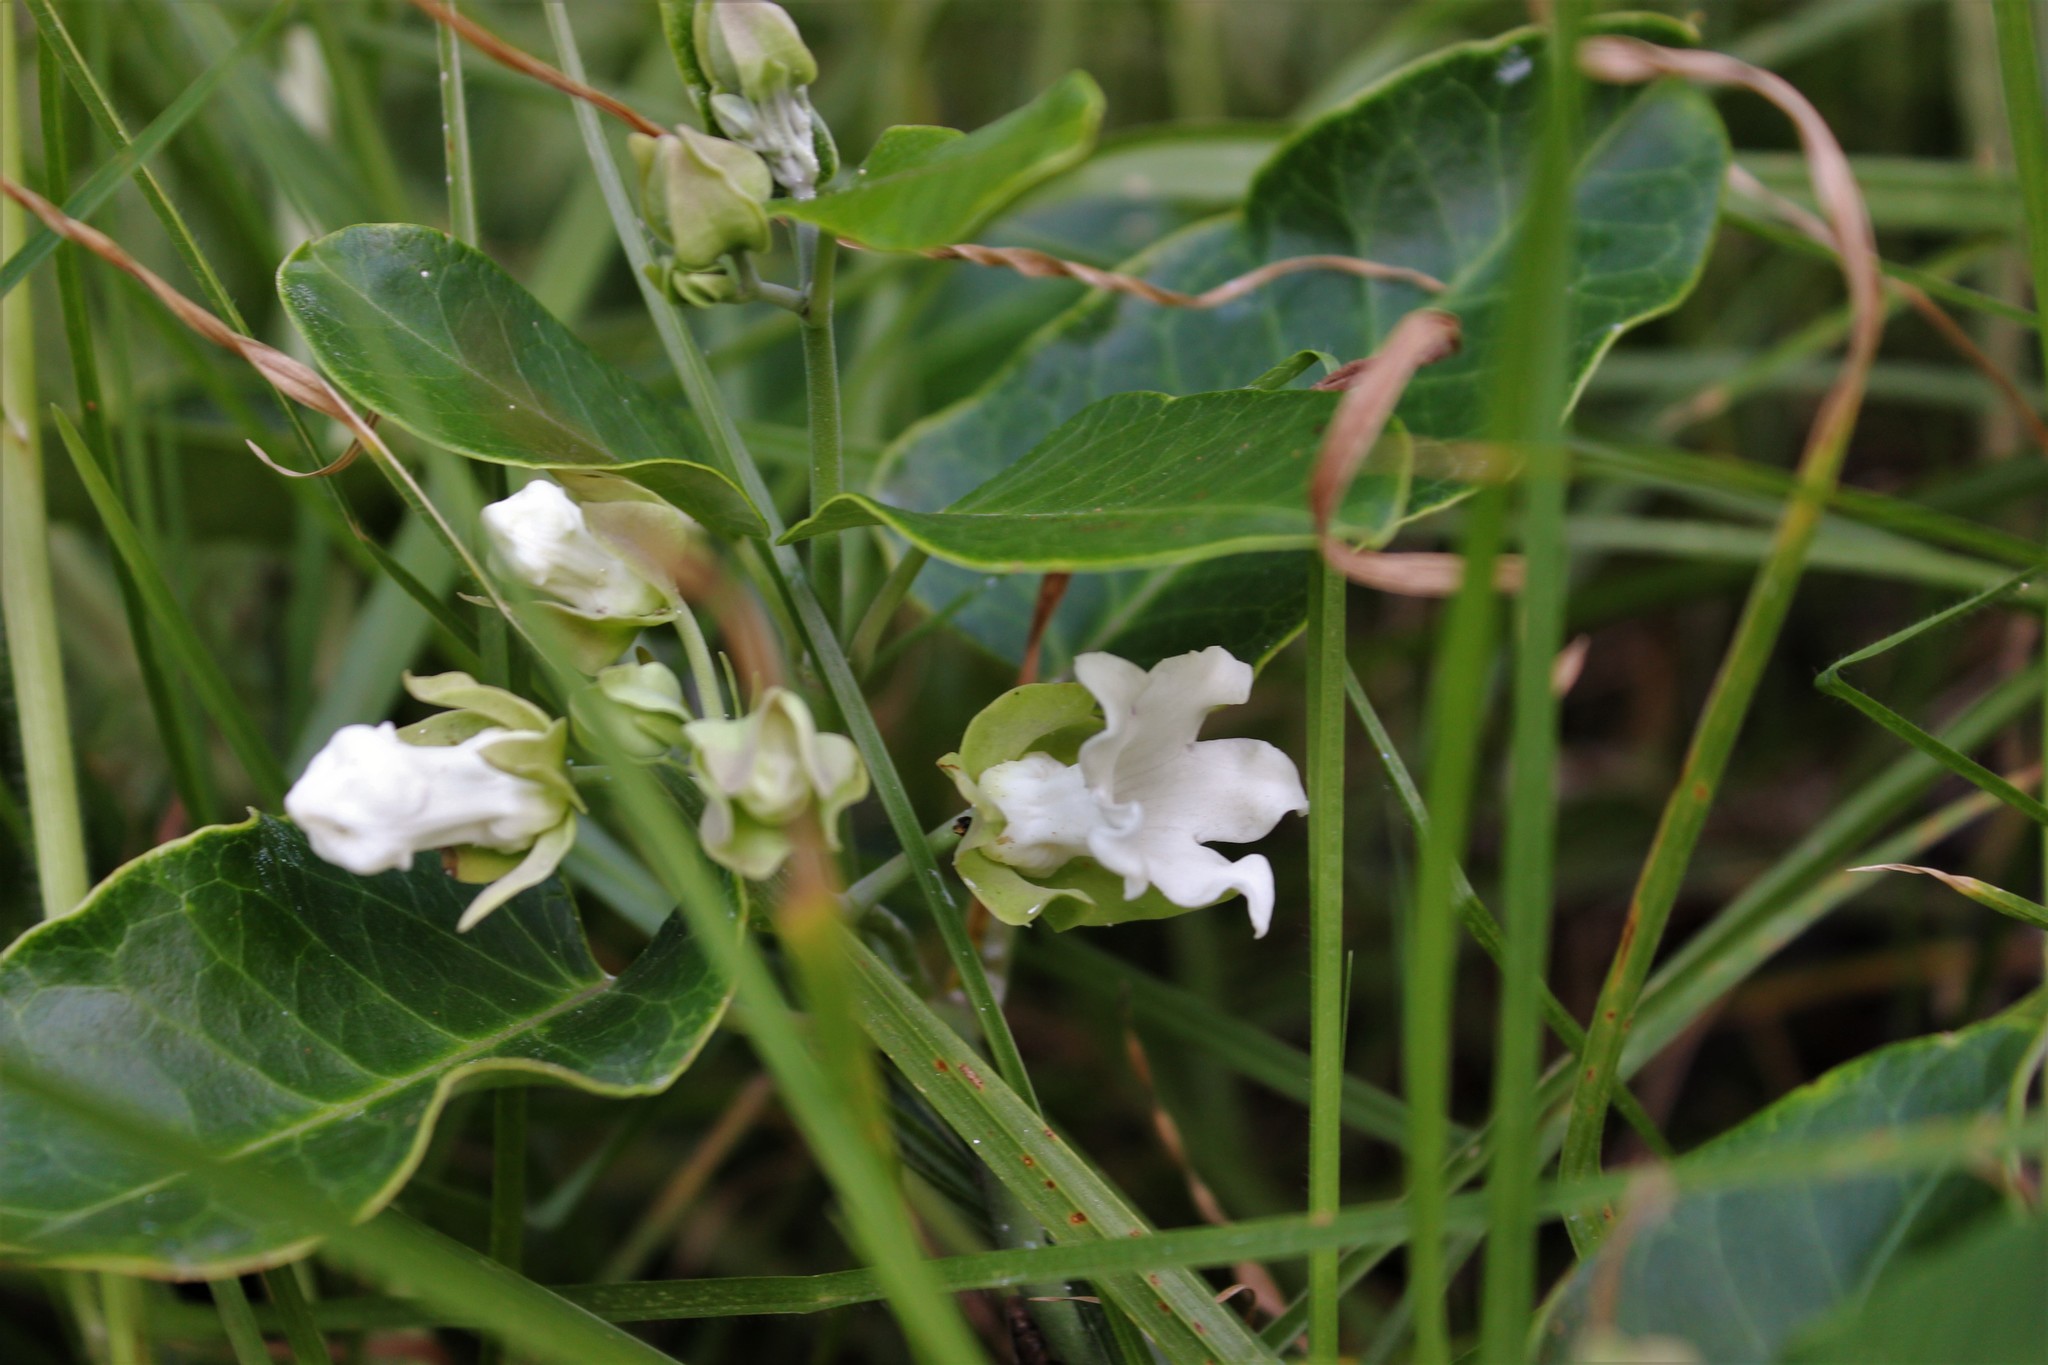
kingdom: Plantae
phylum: Tracheophyta
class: Magnoliopsida
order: Gentianales
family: Apocynaceae
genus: Araujia
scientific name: Araujia sericifera
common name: White bladderflower
